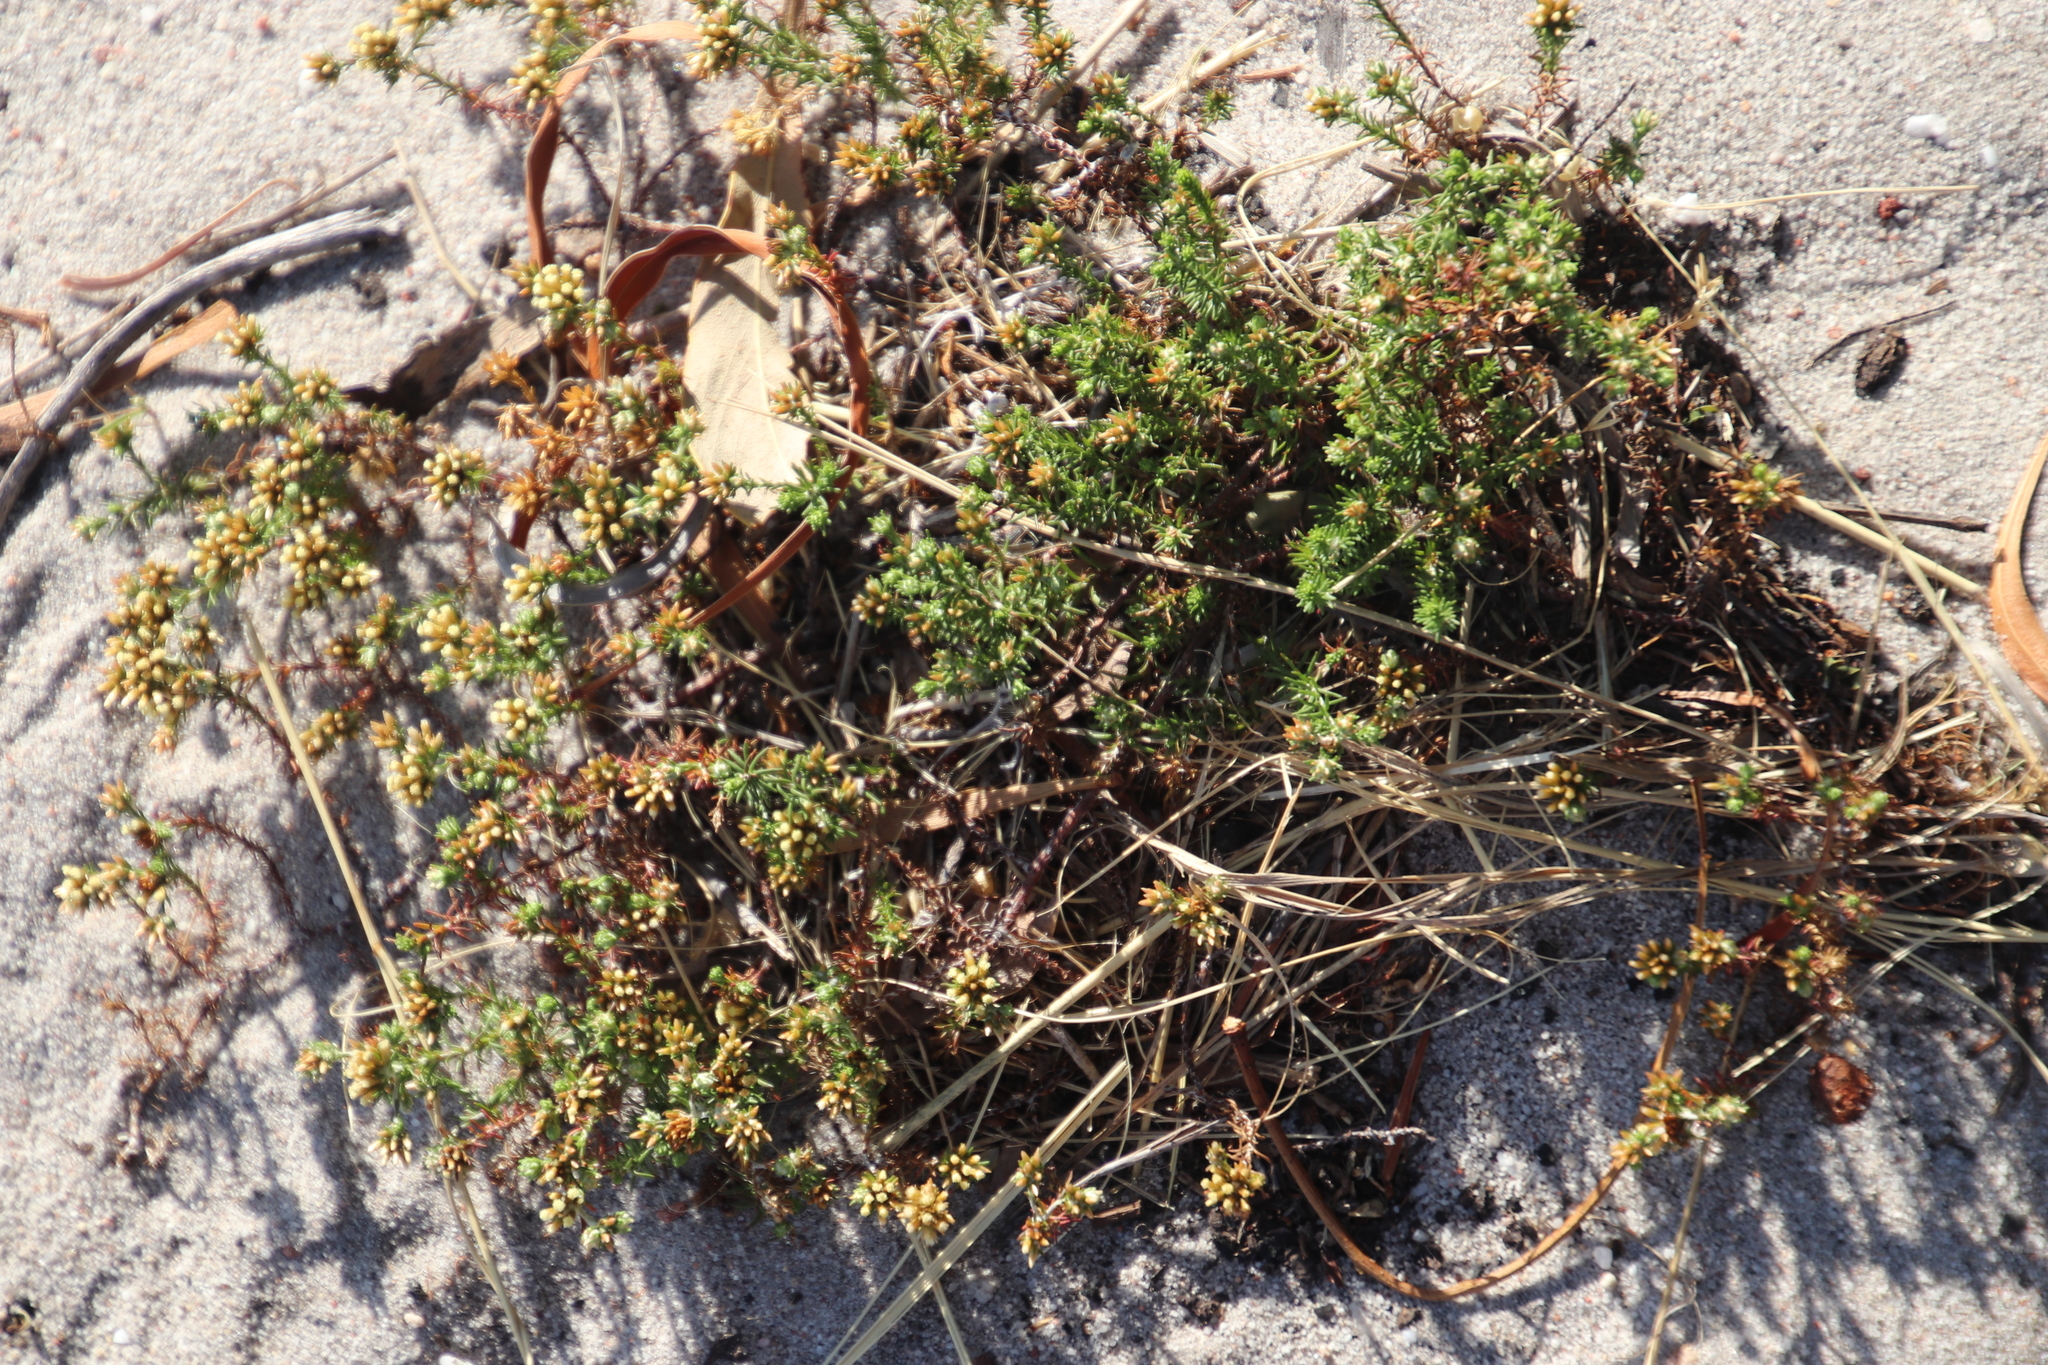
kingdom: Plantae
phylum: Tracheophyta
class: Magnoliopsida
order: Asterales
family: Asteraceae
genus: Helichrysum
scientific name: Helichrysum niveum
